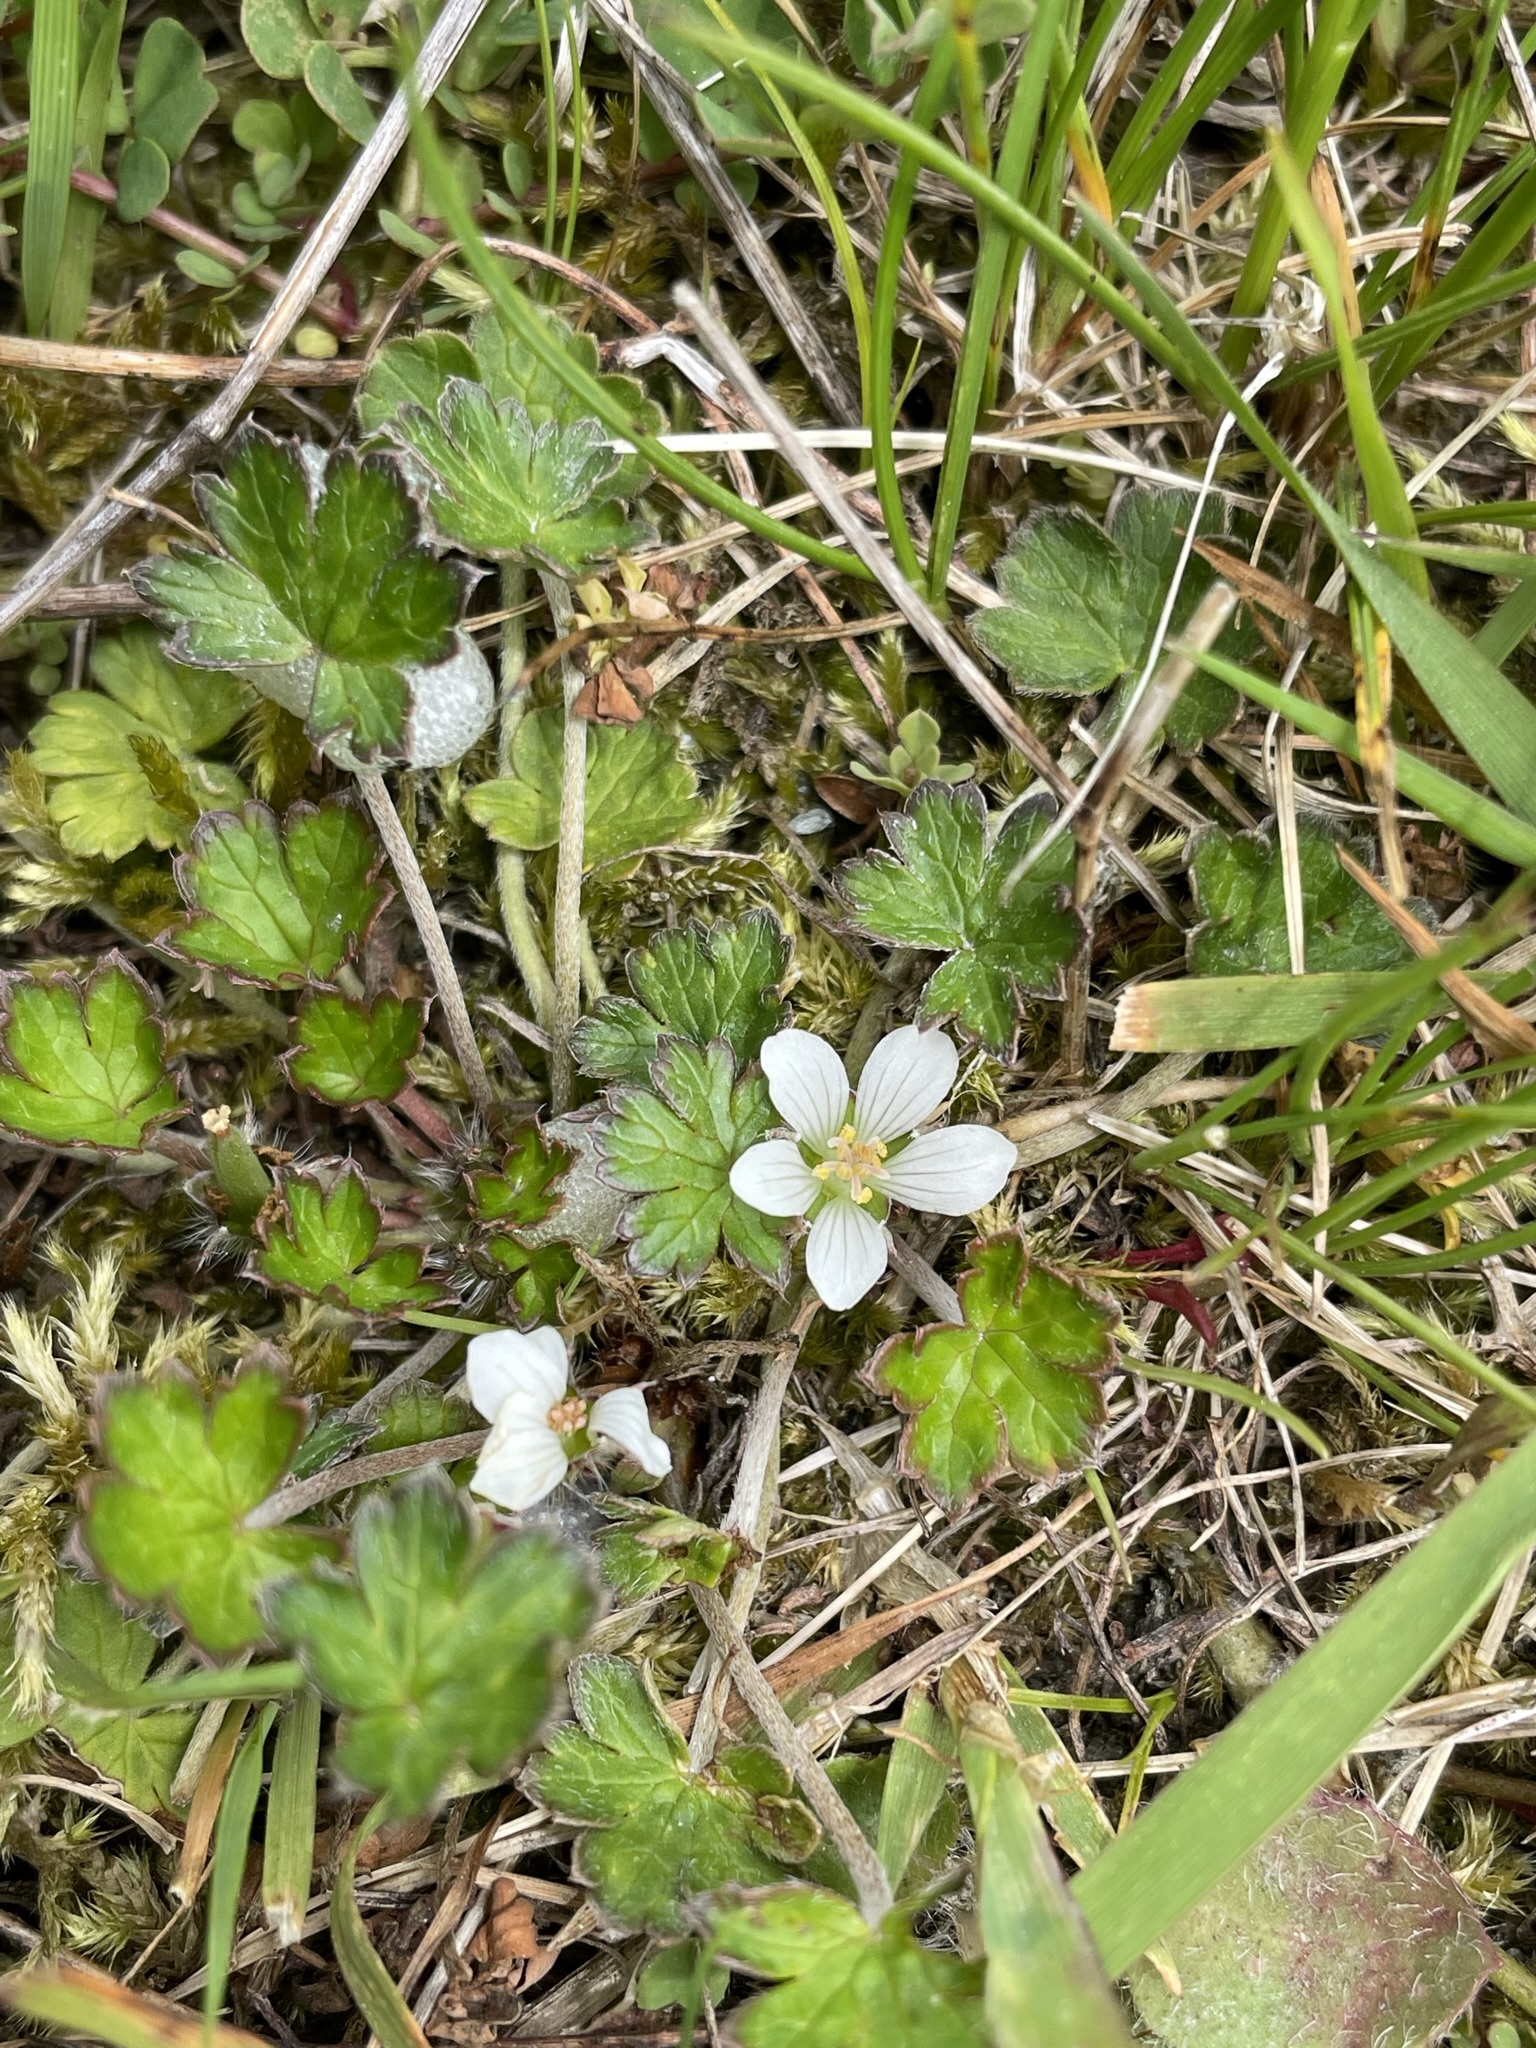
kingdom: Plantae
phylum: Tracheophyta
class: Magnoliopsida
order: Geraniales
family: Geraniaceae
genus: Geranium
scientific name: Geranium brevicaule
